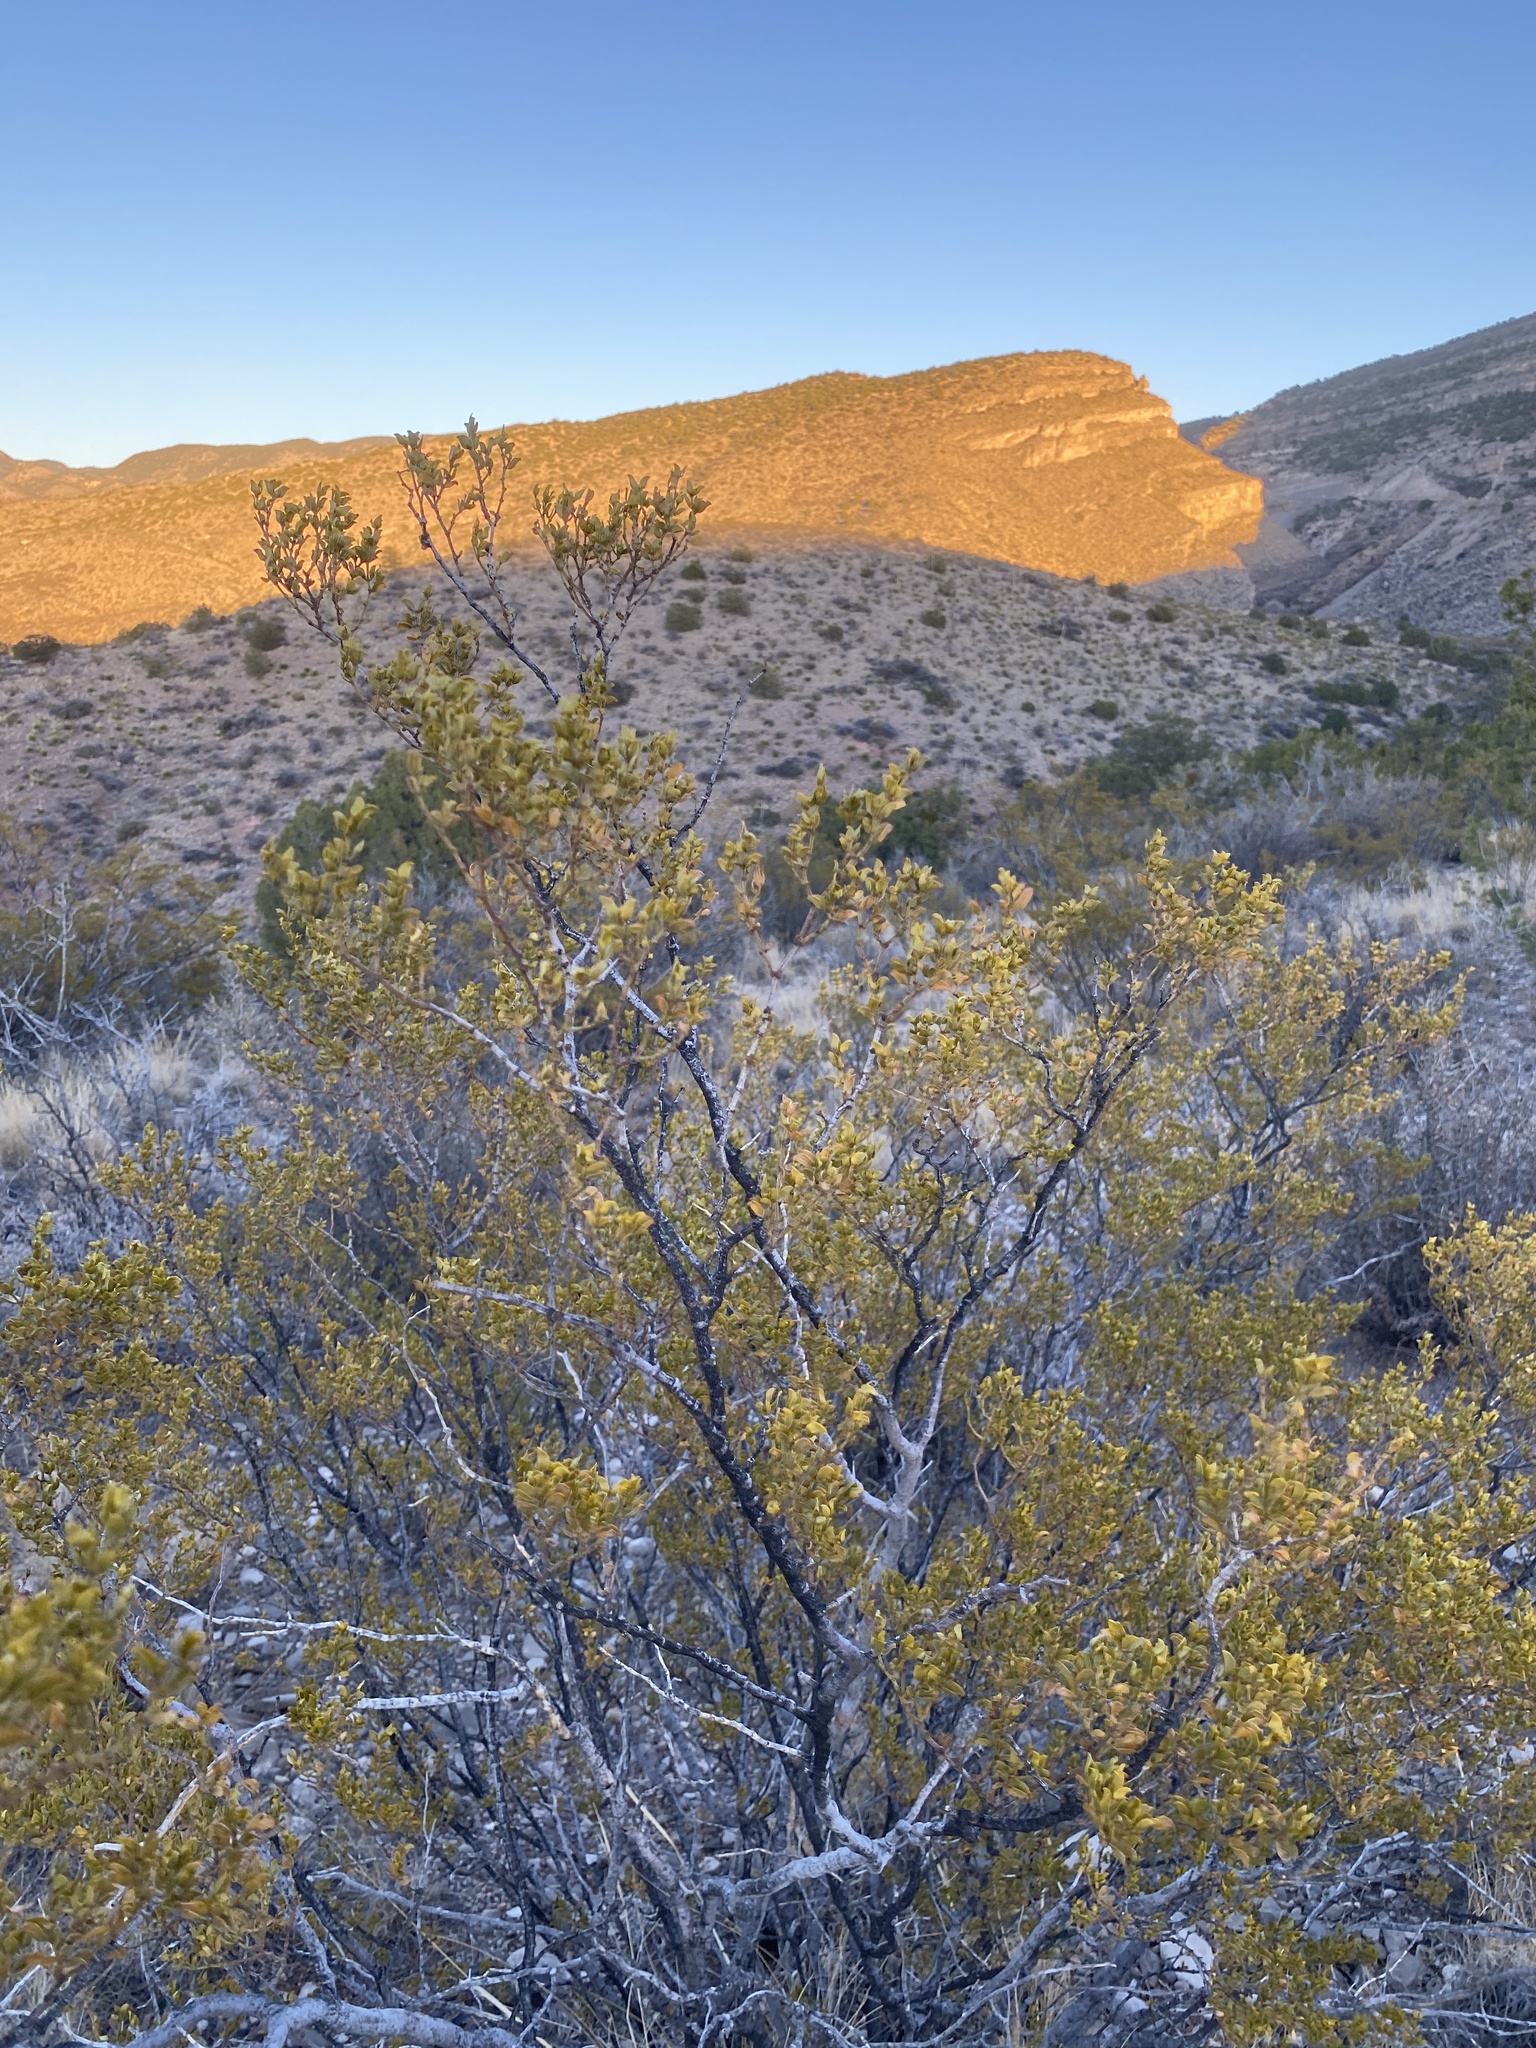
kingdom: Plantae
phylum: Tracheophyta
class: Magnoliopsida
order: Zygophyllales
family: Zygophyllaceae
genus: Larrea
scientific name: Larrea tridentata
